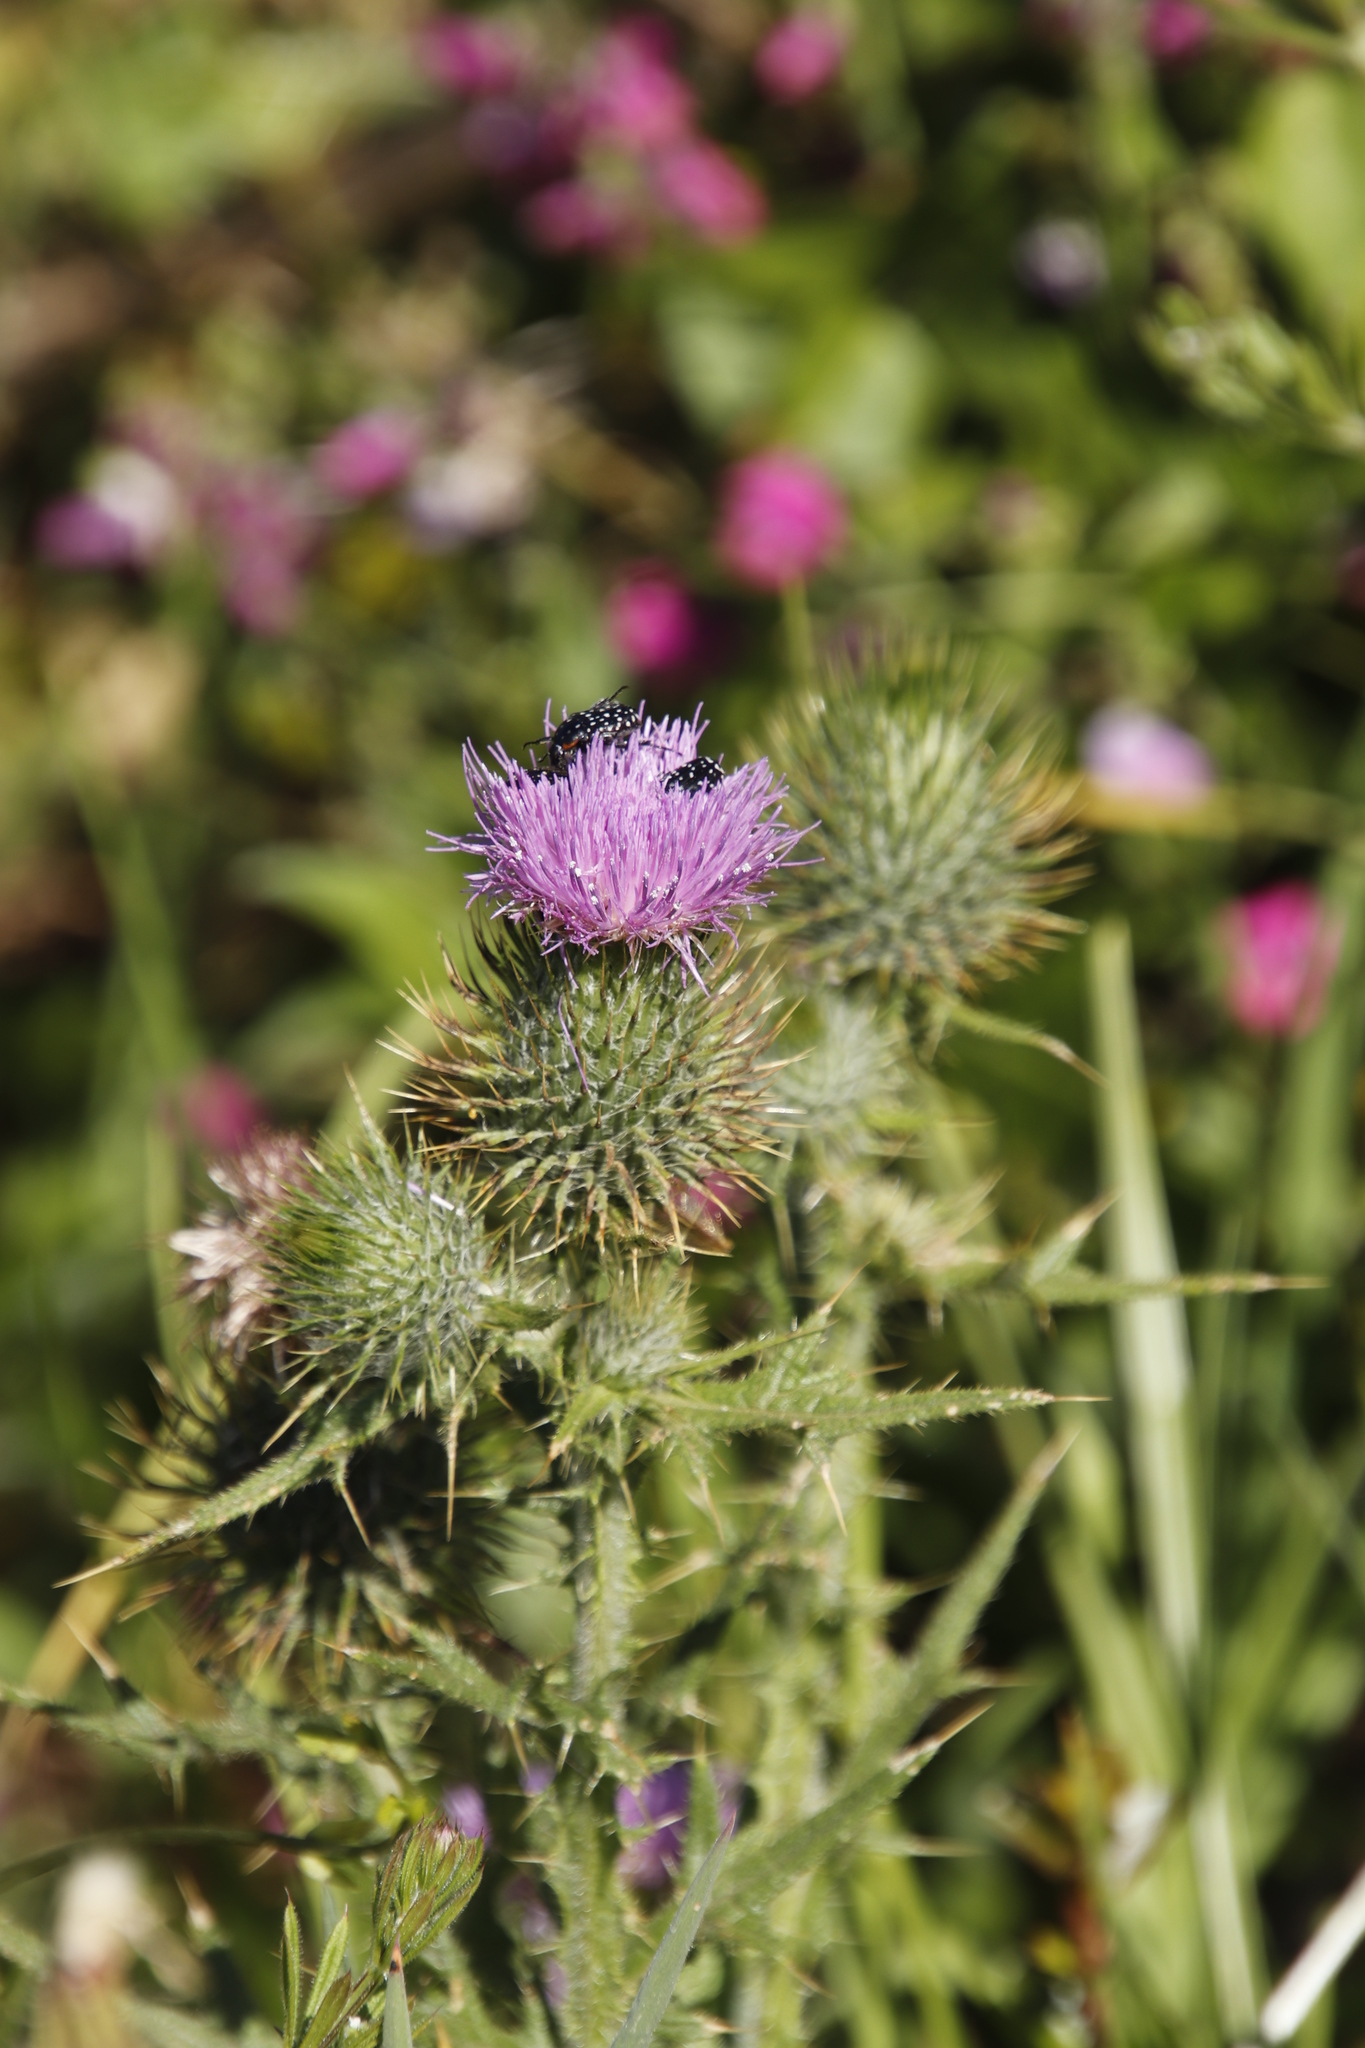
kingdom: Plantae
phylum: Tracheophyta
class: Magnoliopsida
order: Asterales
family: Asteraceae
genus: Cirsium
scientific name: Cirsium vulgare
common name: Bull thistle
